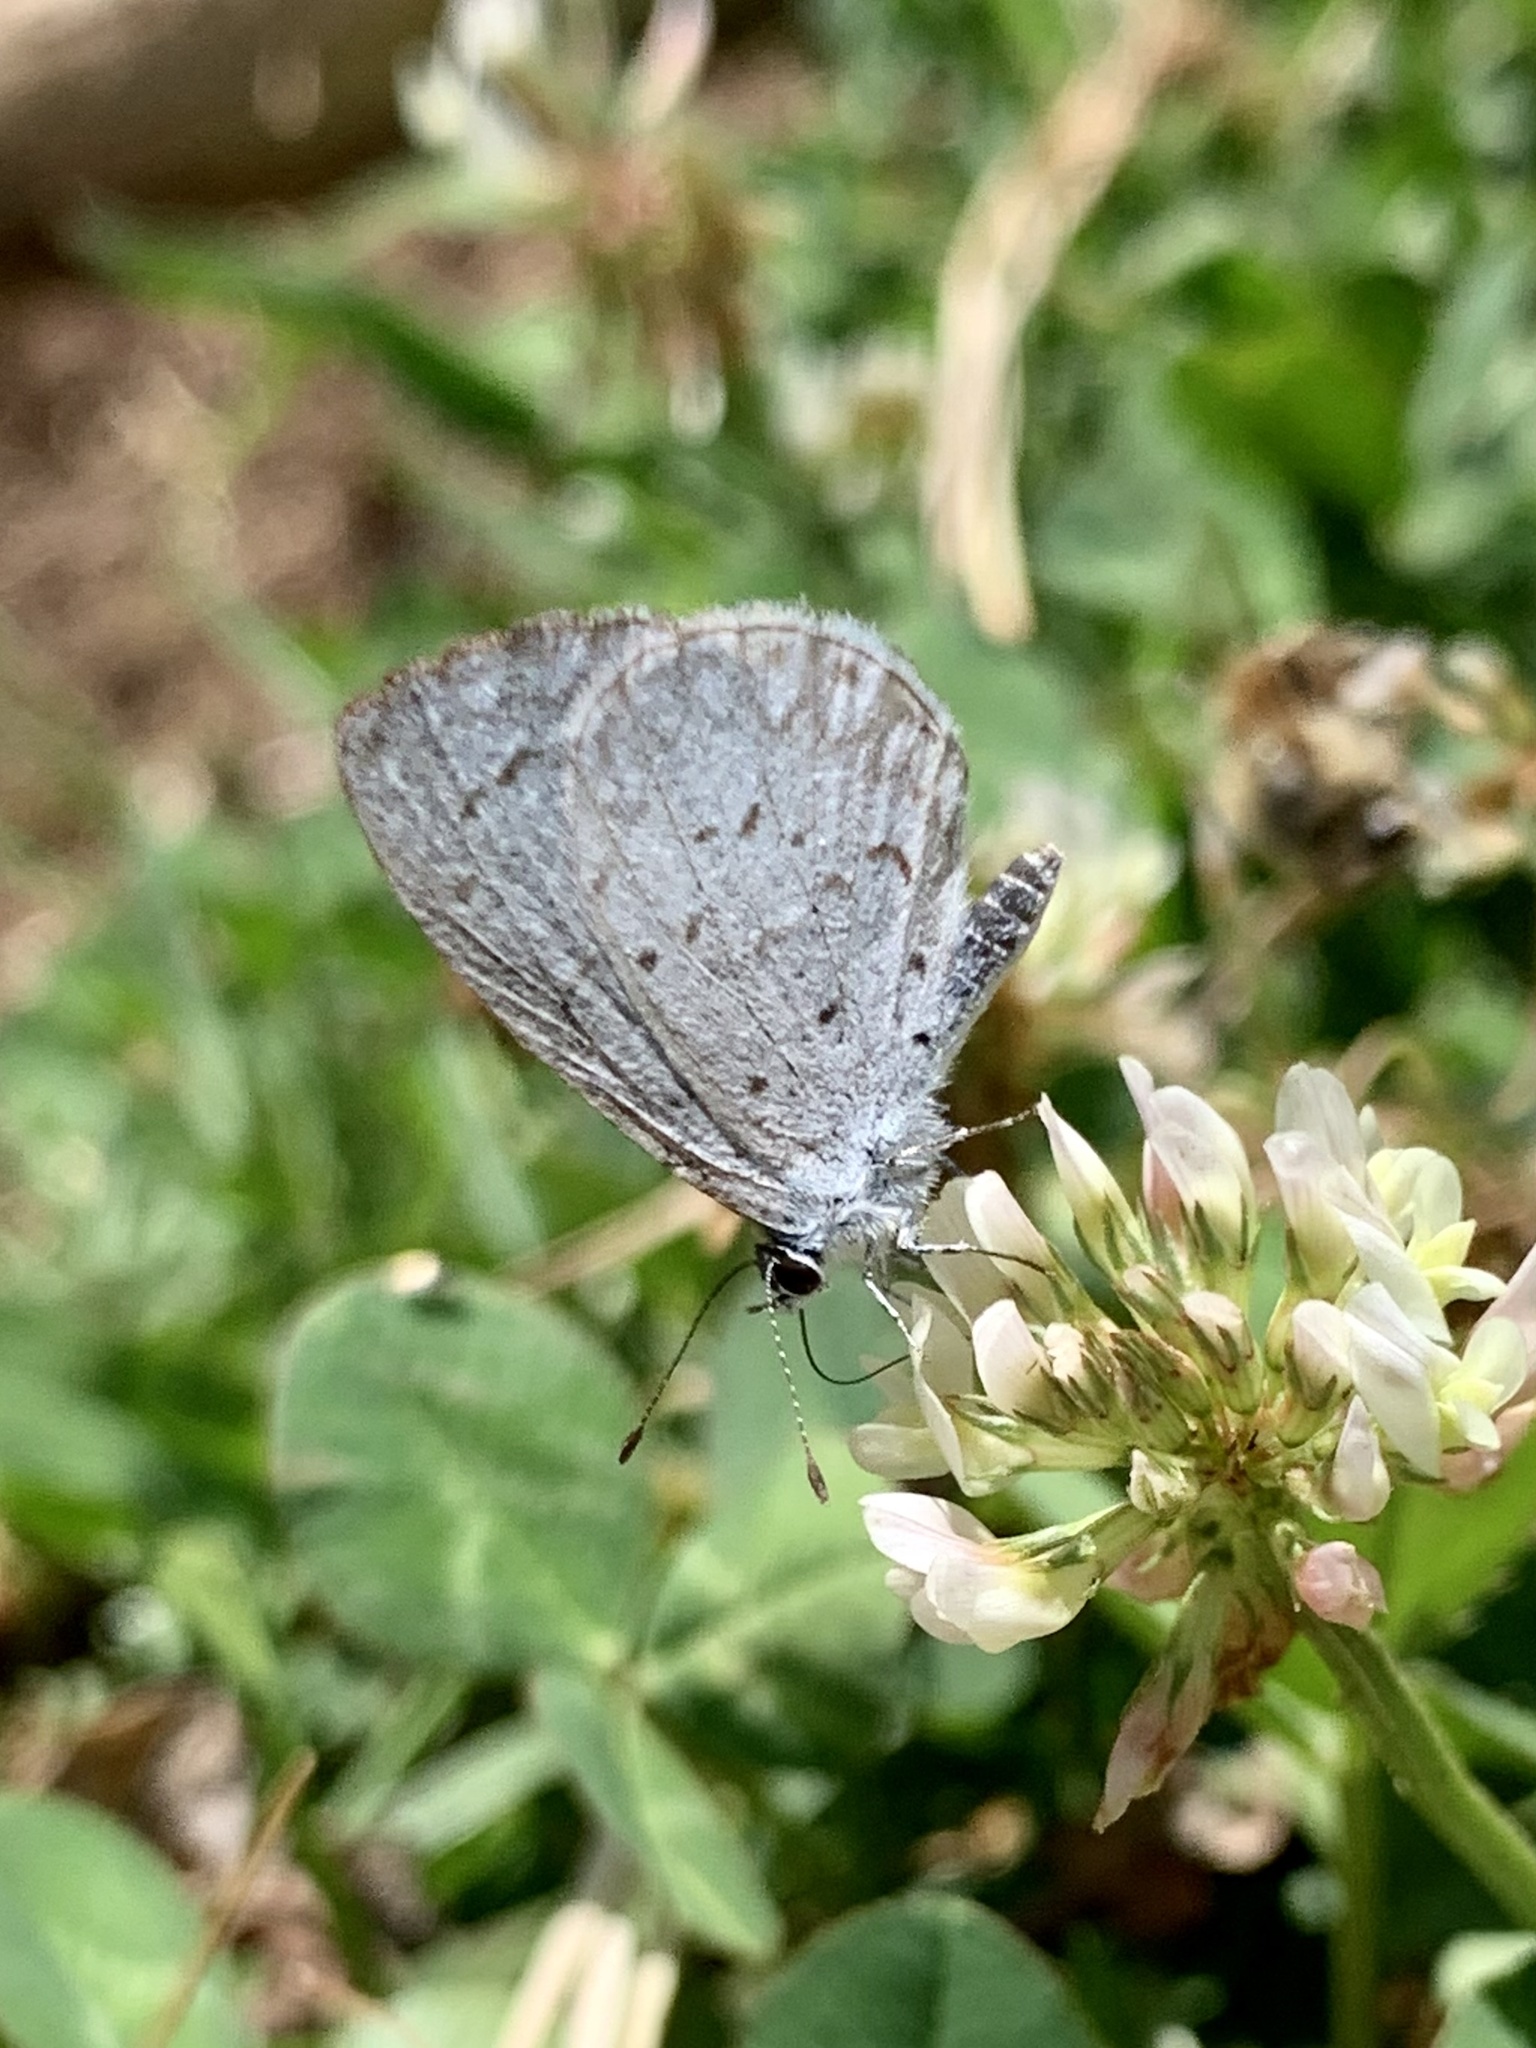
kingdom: Animalia
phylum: Arthropoda
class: Insecta
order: Lepidoptera
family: Lycaenidae
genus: Celastrina
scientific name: Celastrina ladon
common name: Spring azure
